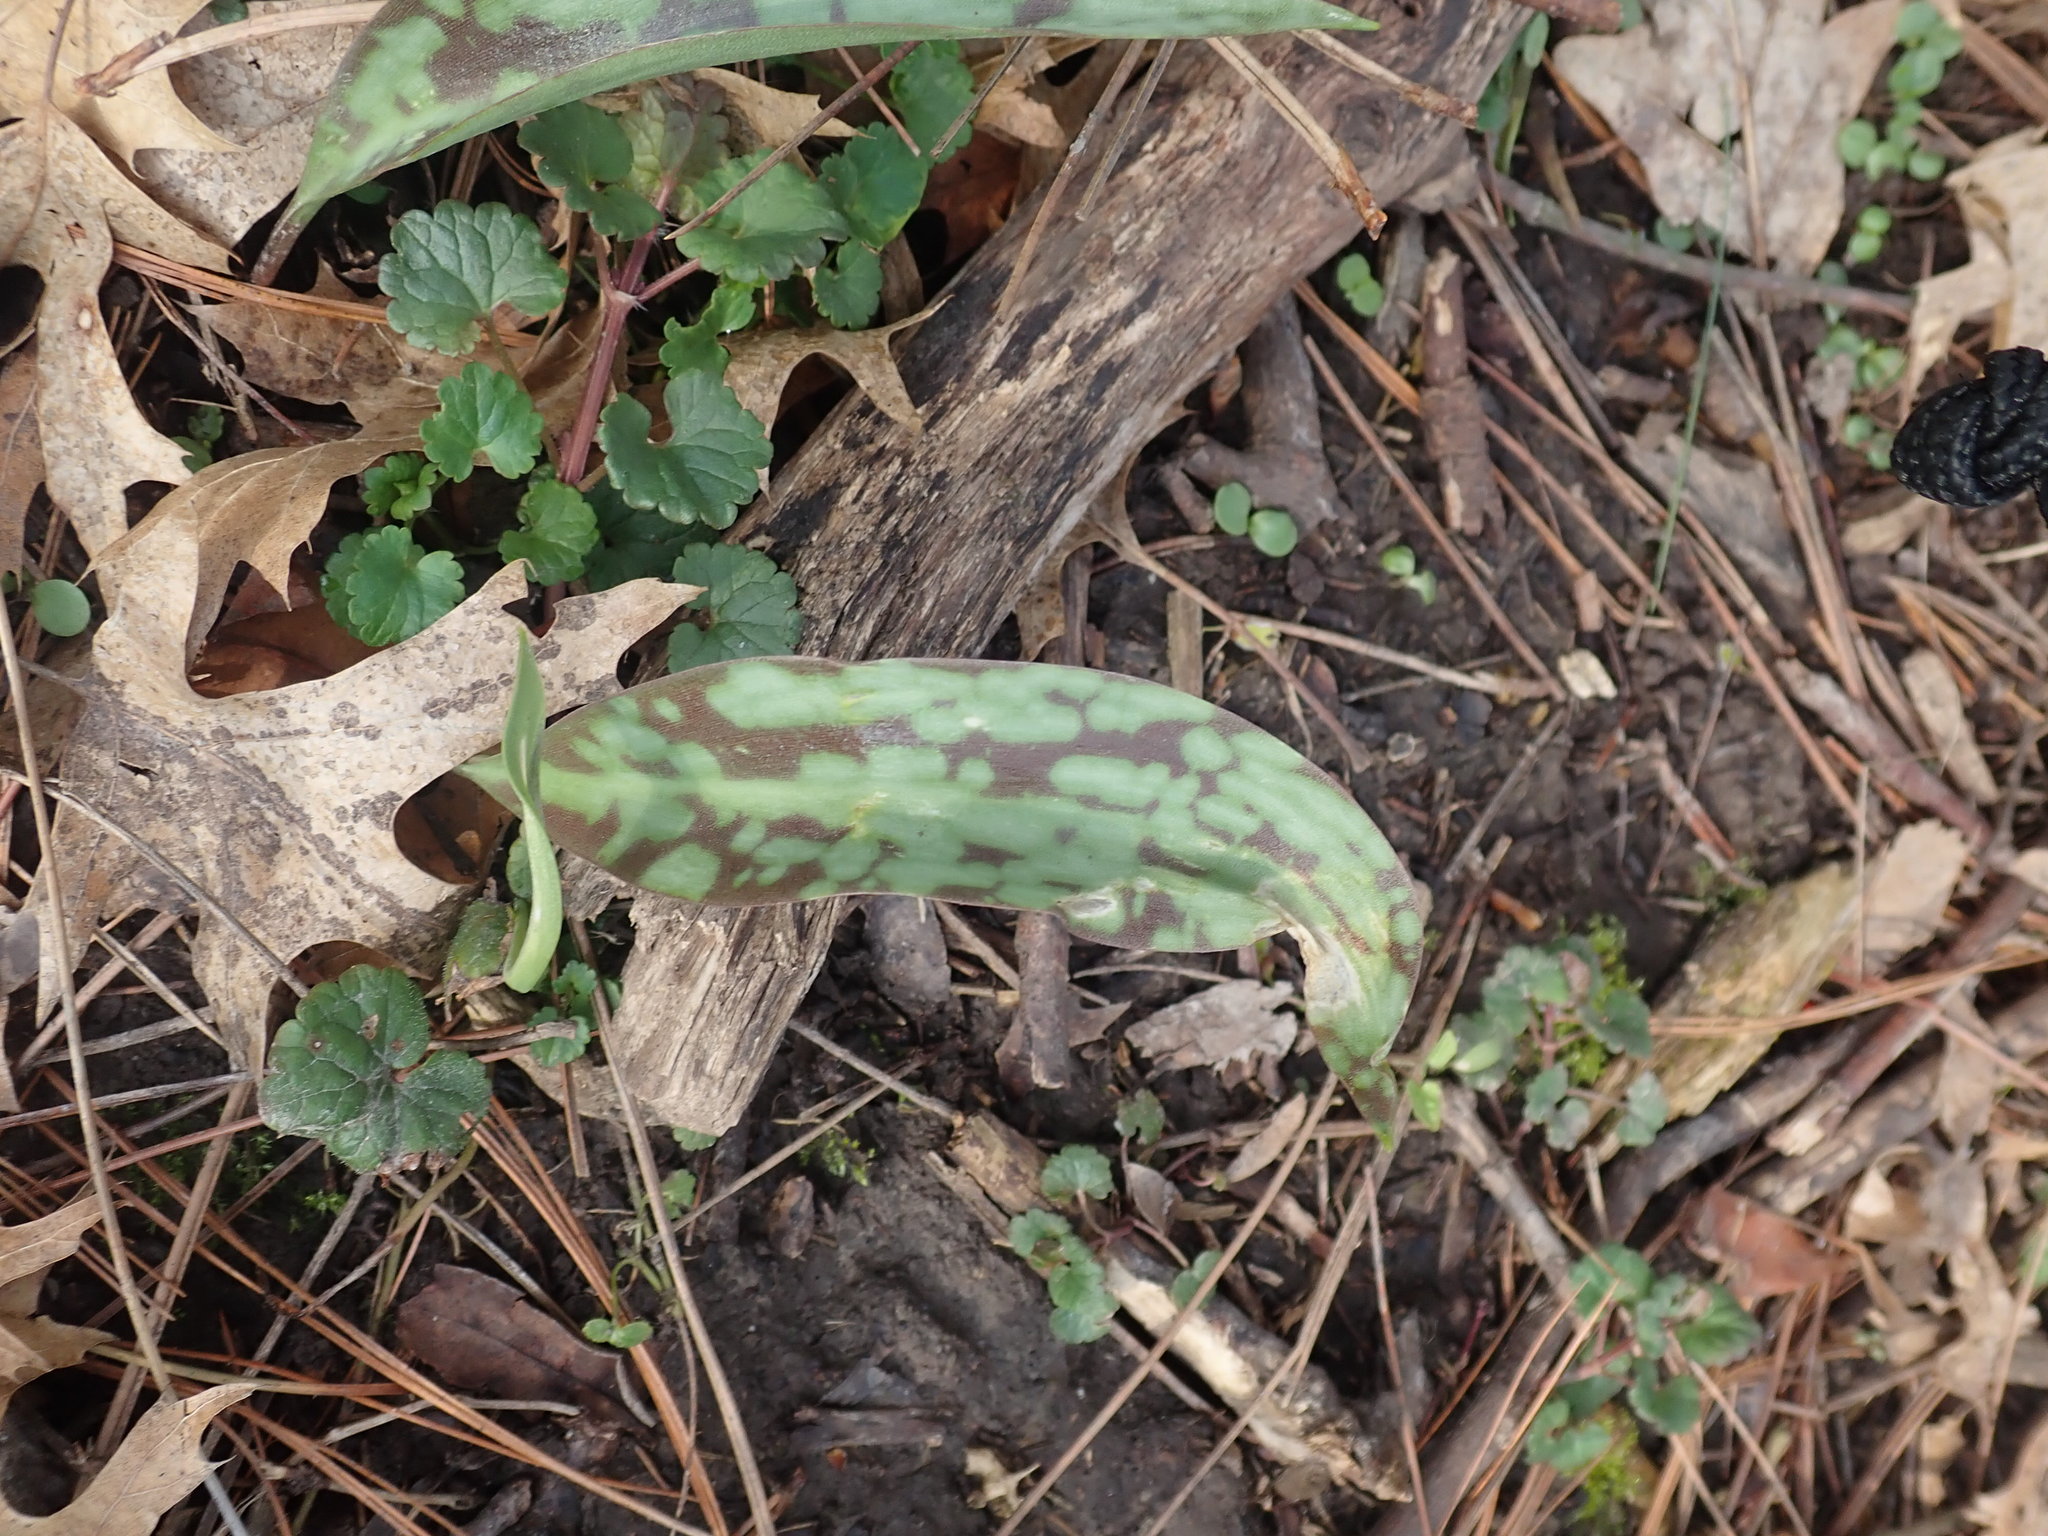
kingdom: Plantae
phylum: Tracheophyta
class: Liliopsida
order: Liliales
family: Liliaceae
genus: Erythronium
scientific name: Erythronium albidum
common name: White trout-lily
